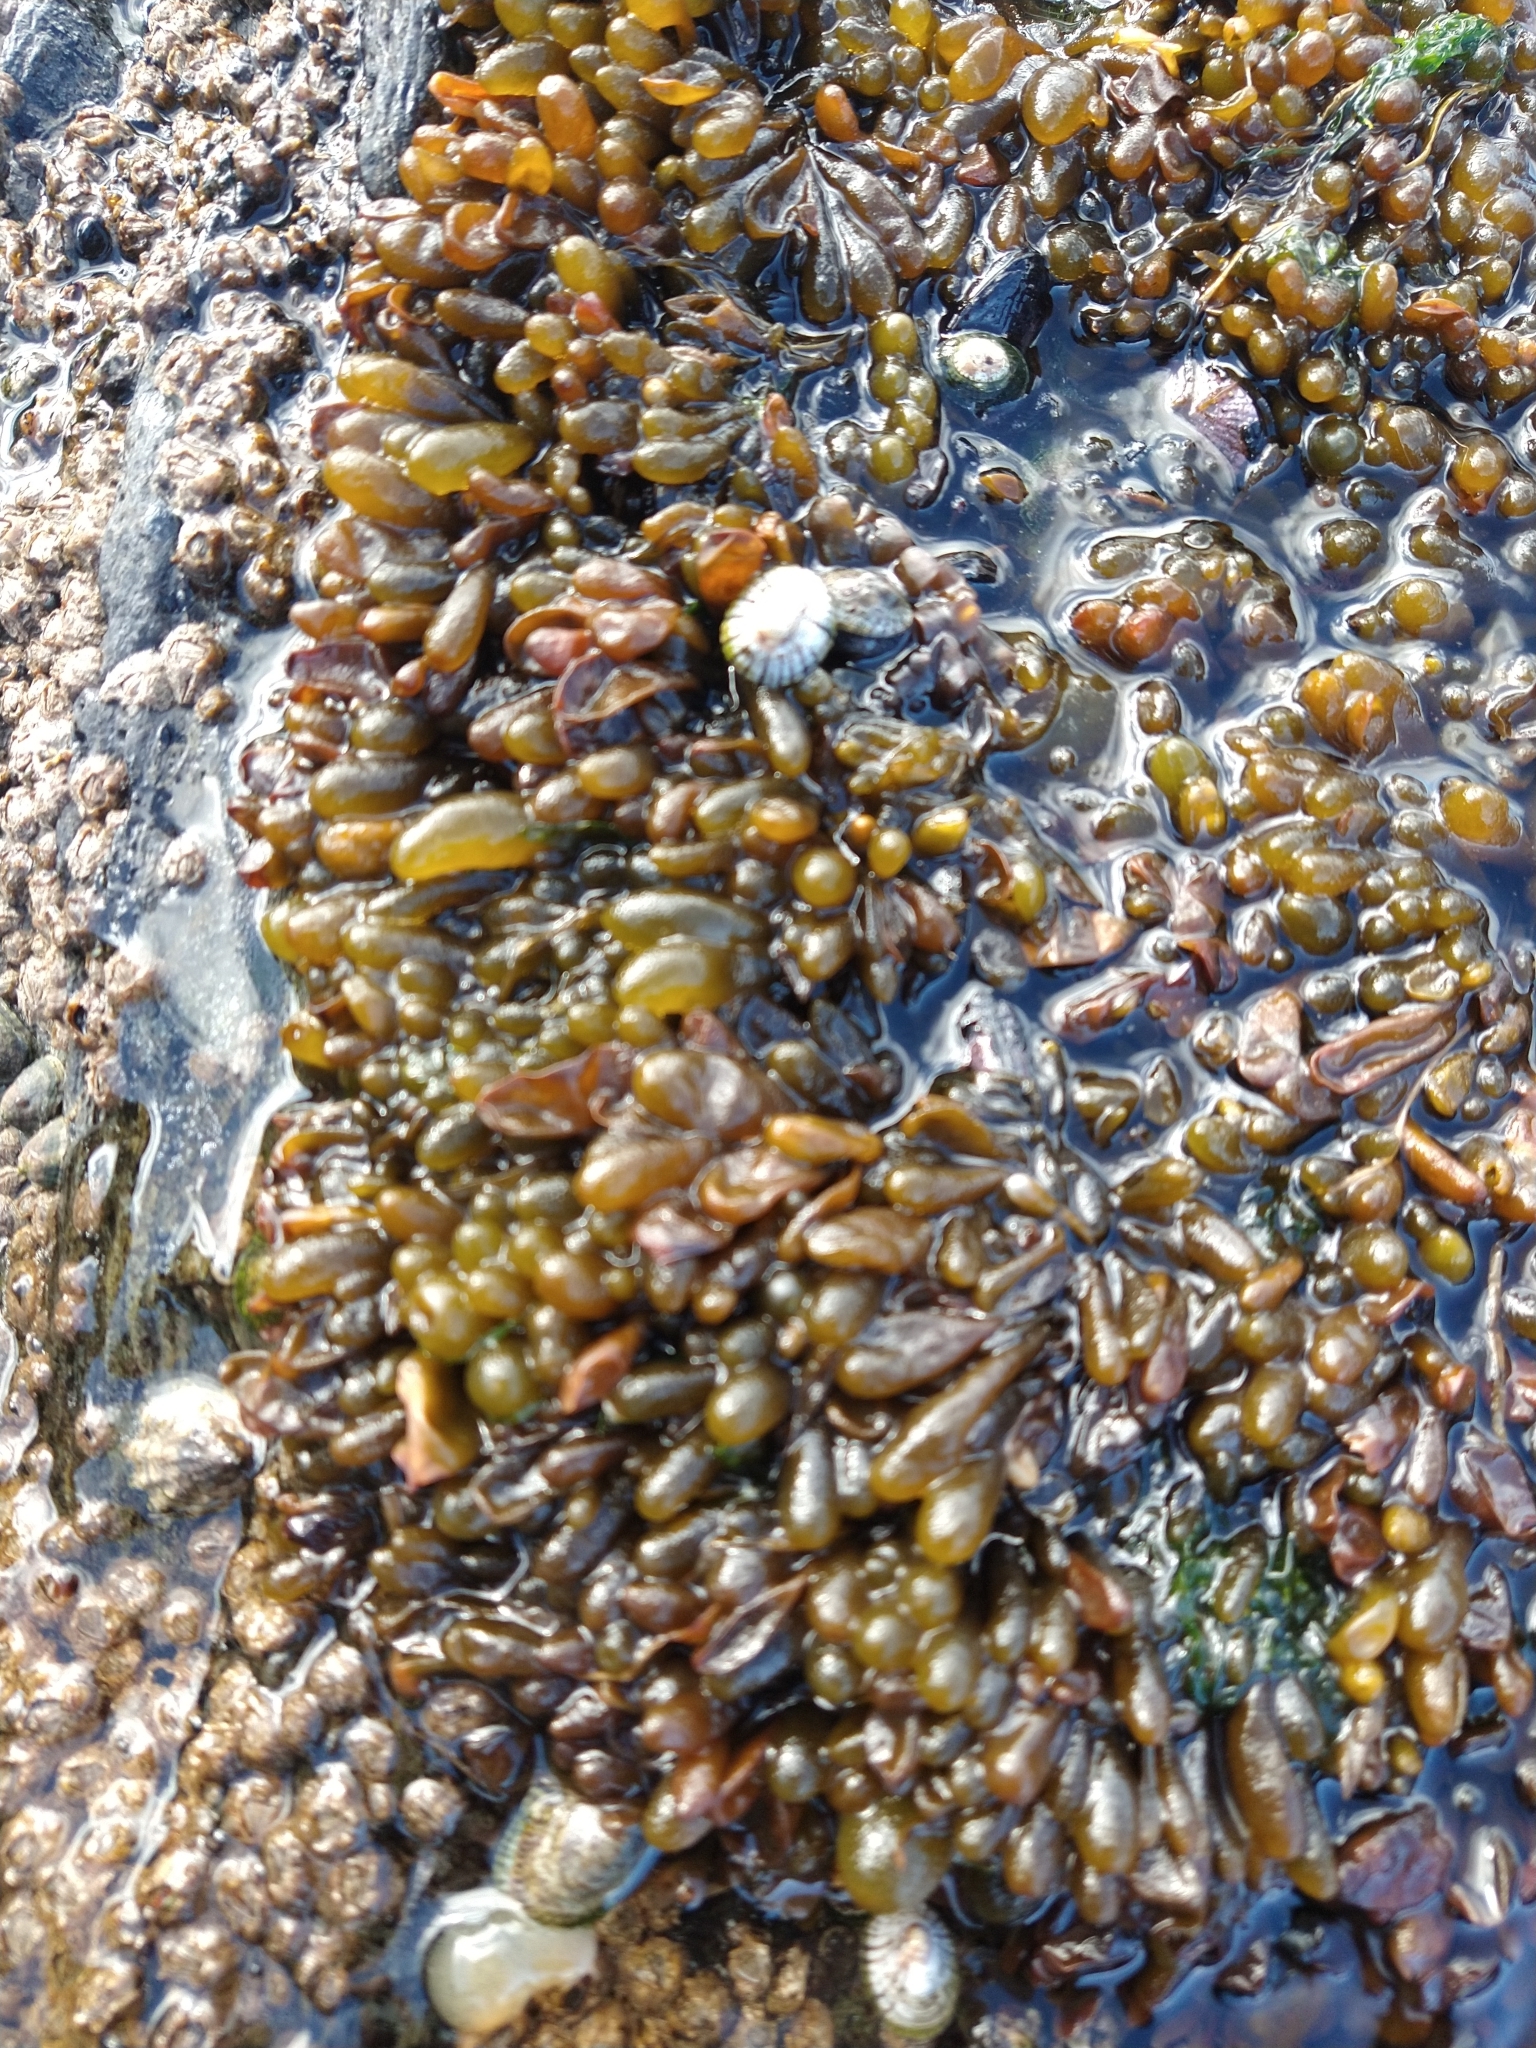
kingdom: Chromista
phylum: Ochrophyta
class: Phaeophyceae
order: Ectocarpales
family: Adenocystaceae
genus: Adenocystis
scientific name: Adenocystis utricularis
